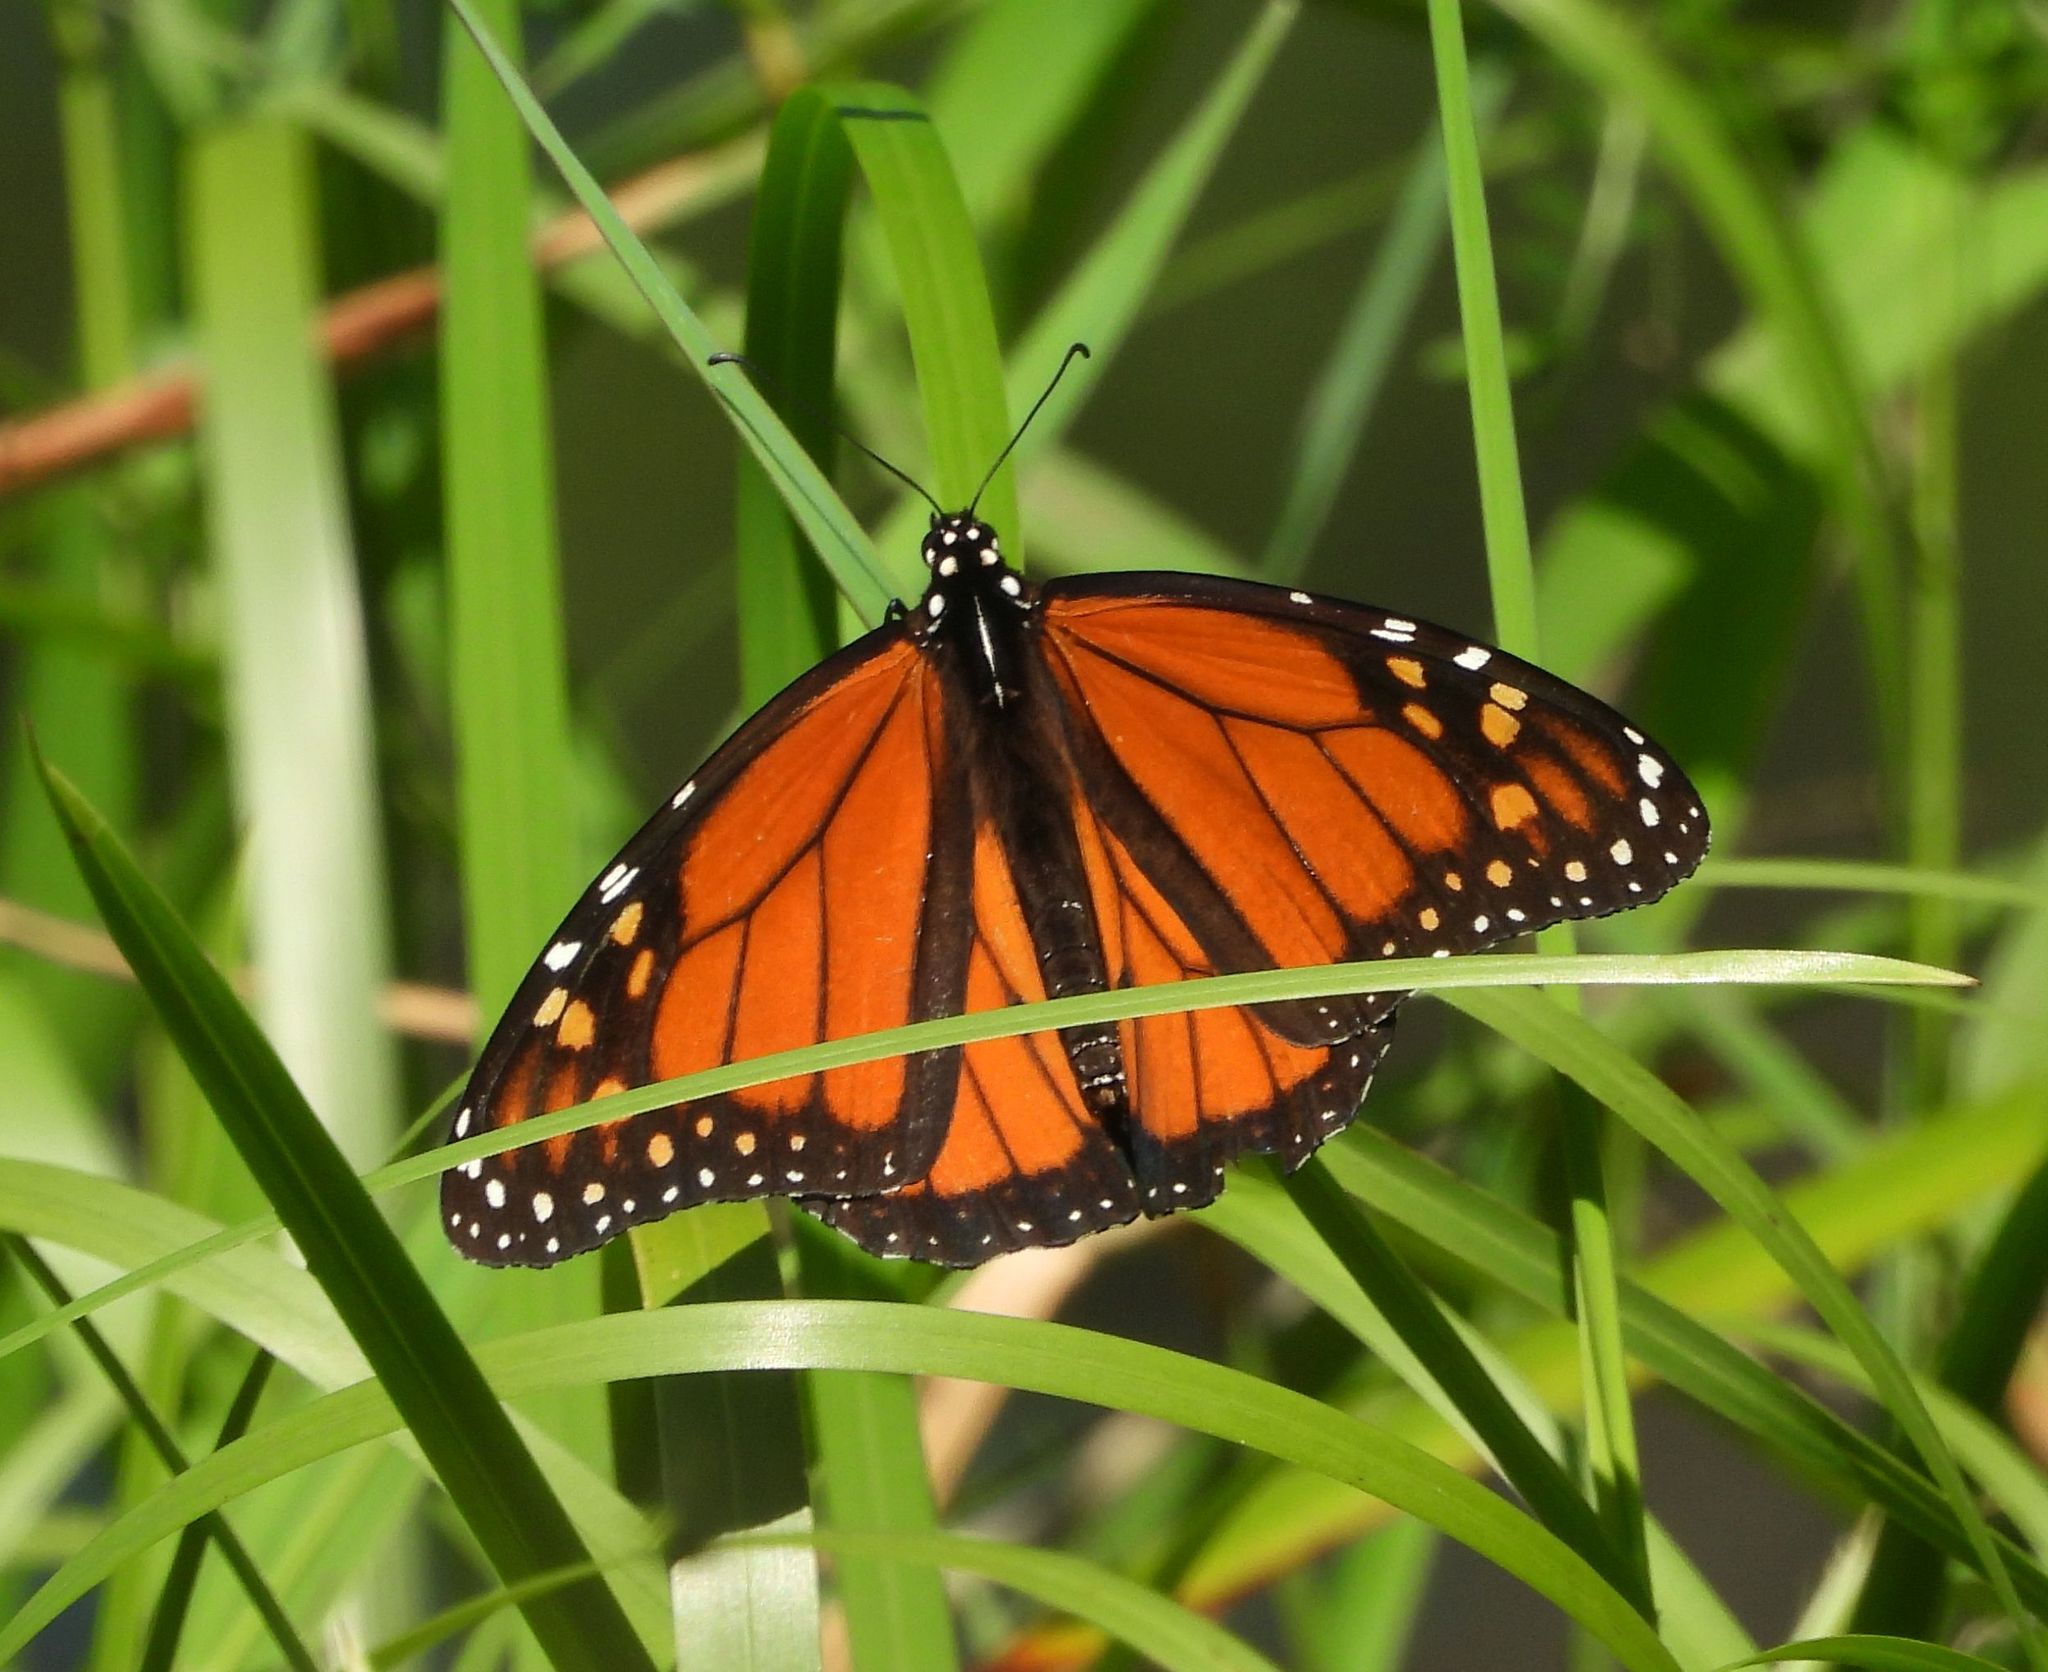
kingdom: Animalia
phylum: Arthropoda
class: Insecta
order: Lepidoptera
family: Nymphalidae
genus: Danaus
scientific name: Danaus plexippus
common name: Monarch
